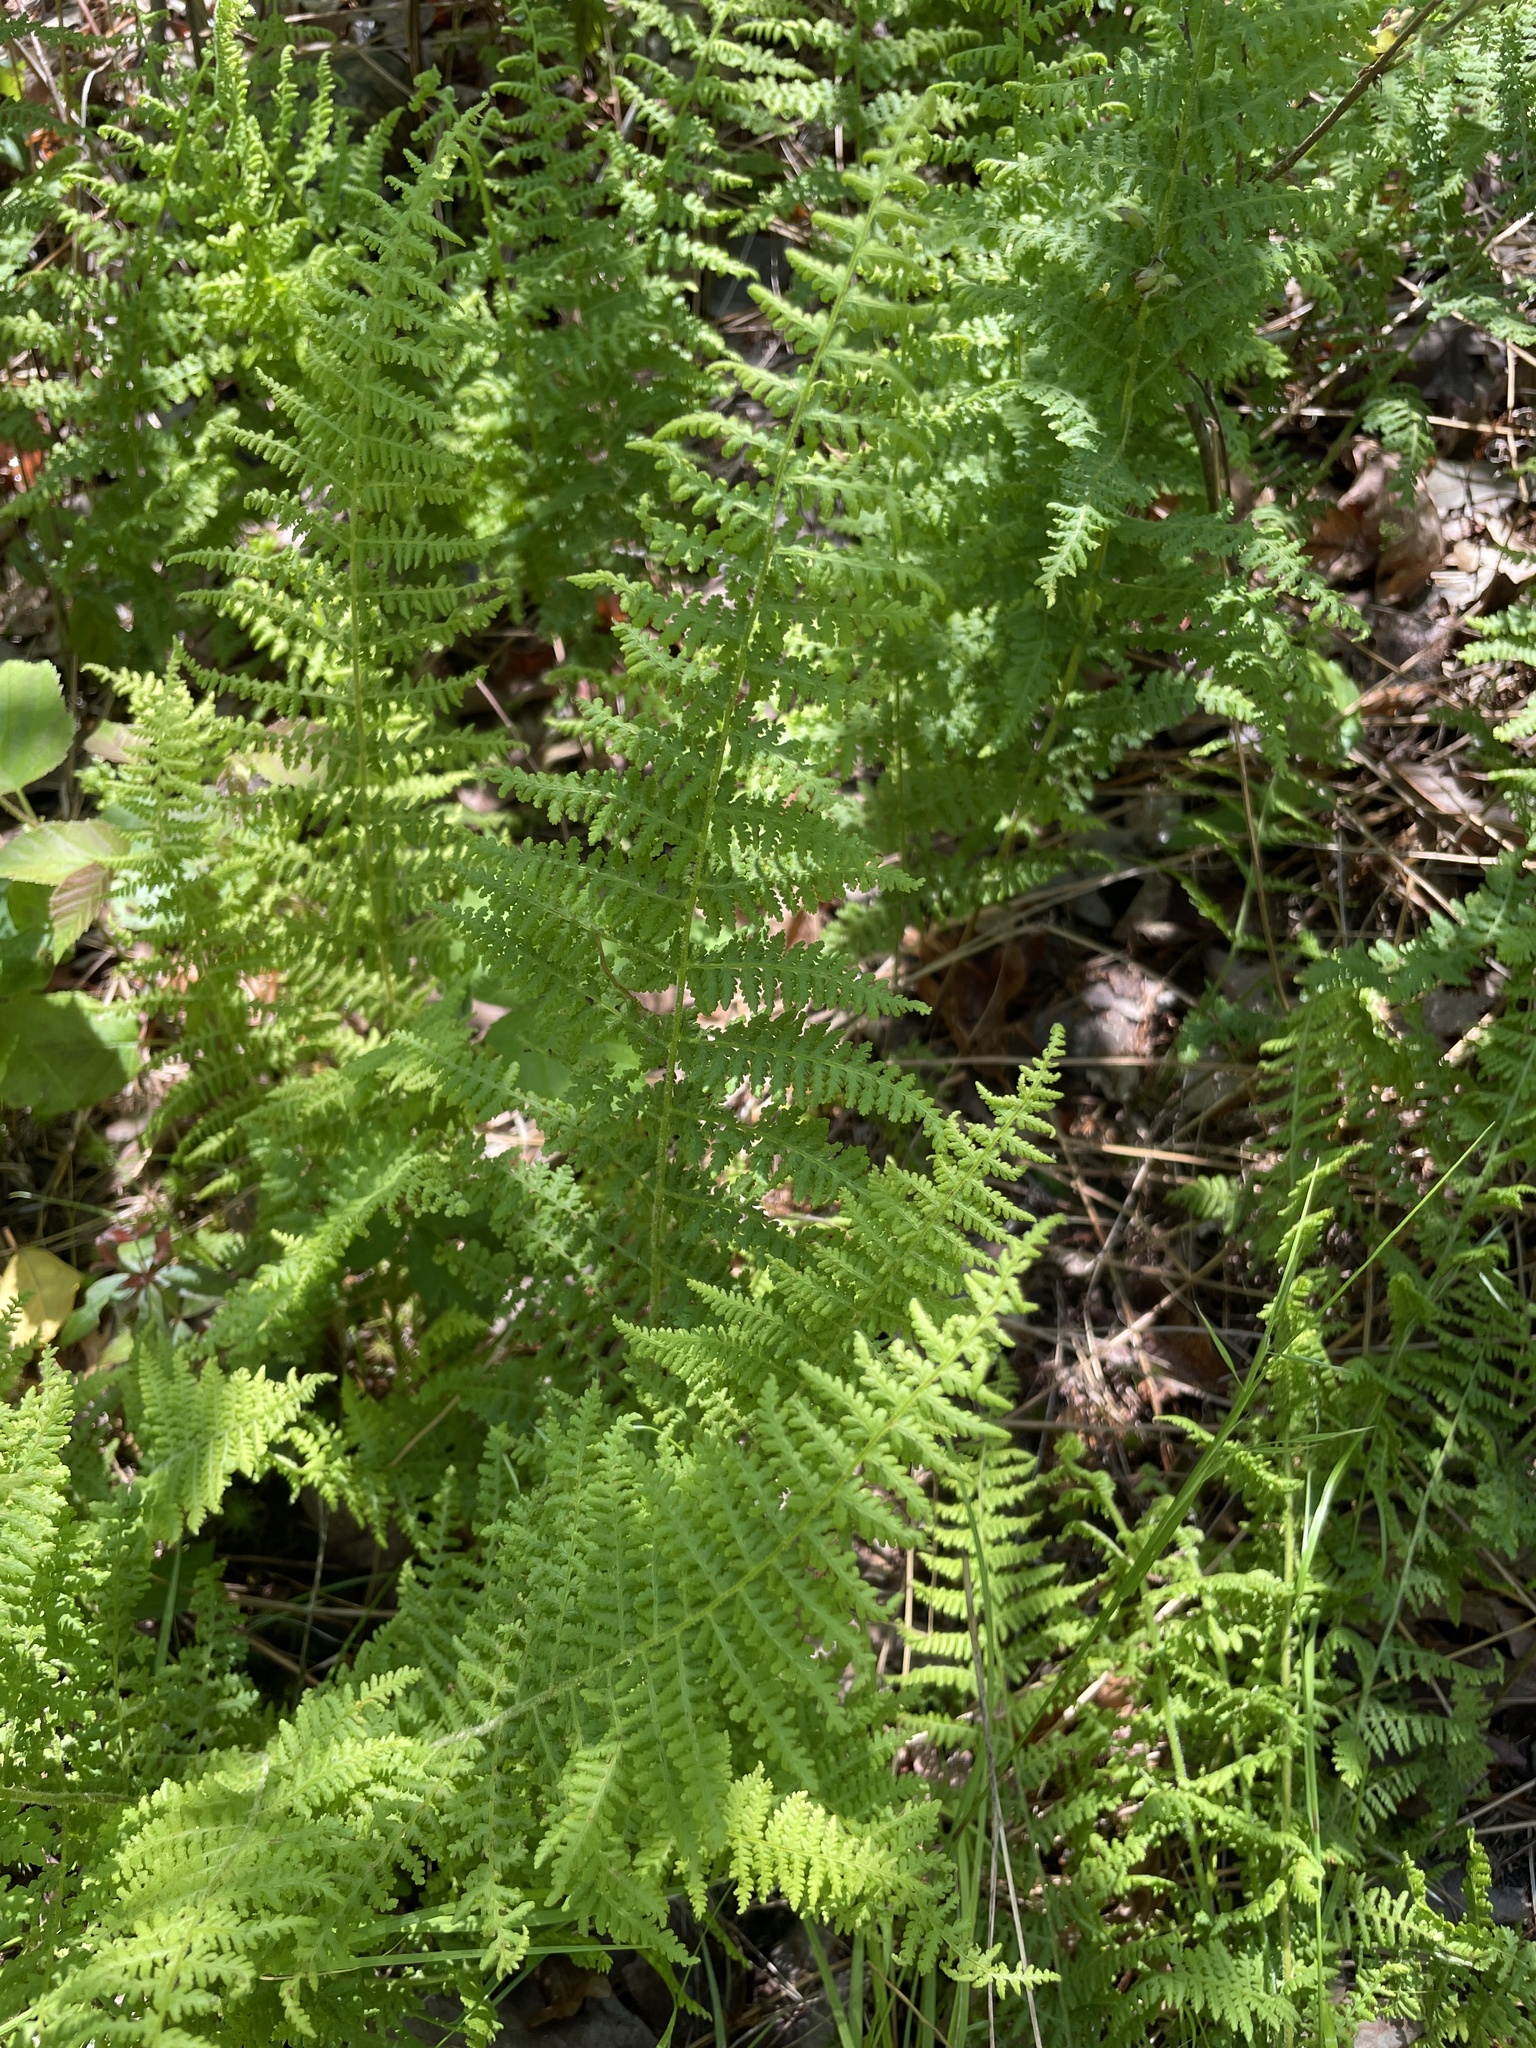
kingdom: Plantae
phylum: Tracheophyta
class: Polypodiopsida
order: Polypodiales
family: Dennstaedtiaceae
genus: Sitobolium
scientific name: Sitobolium punctilobum
